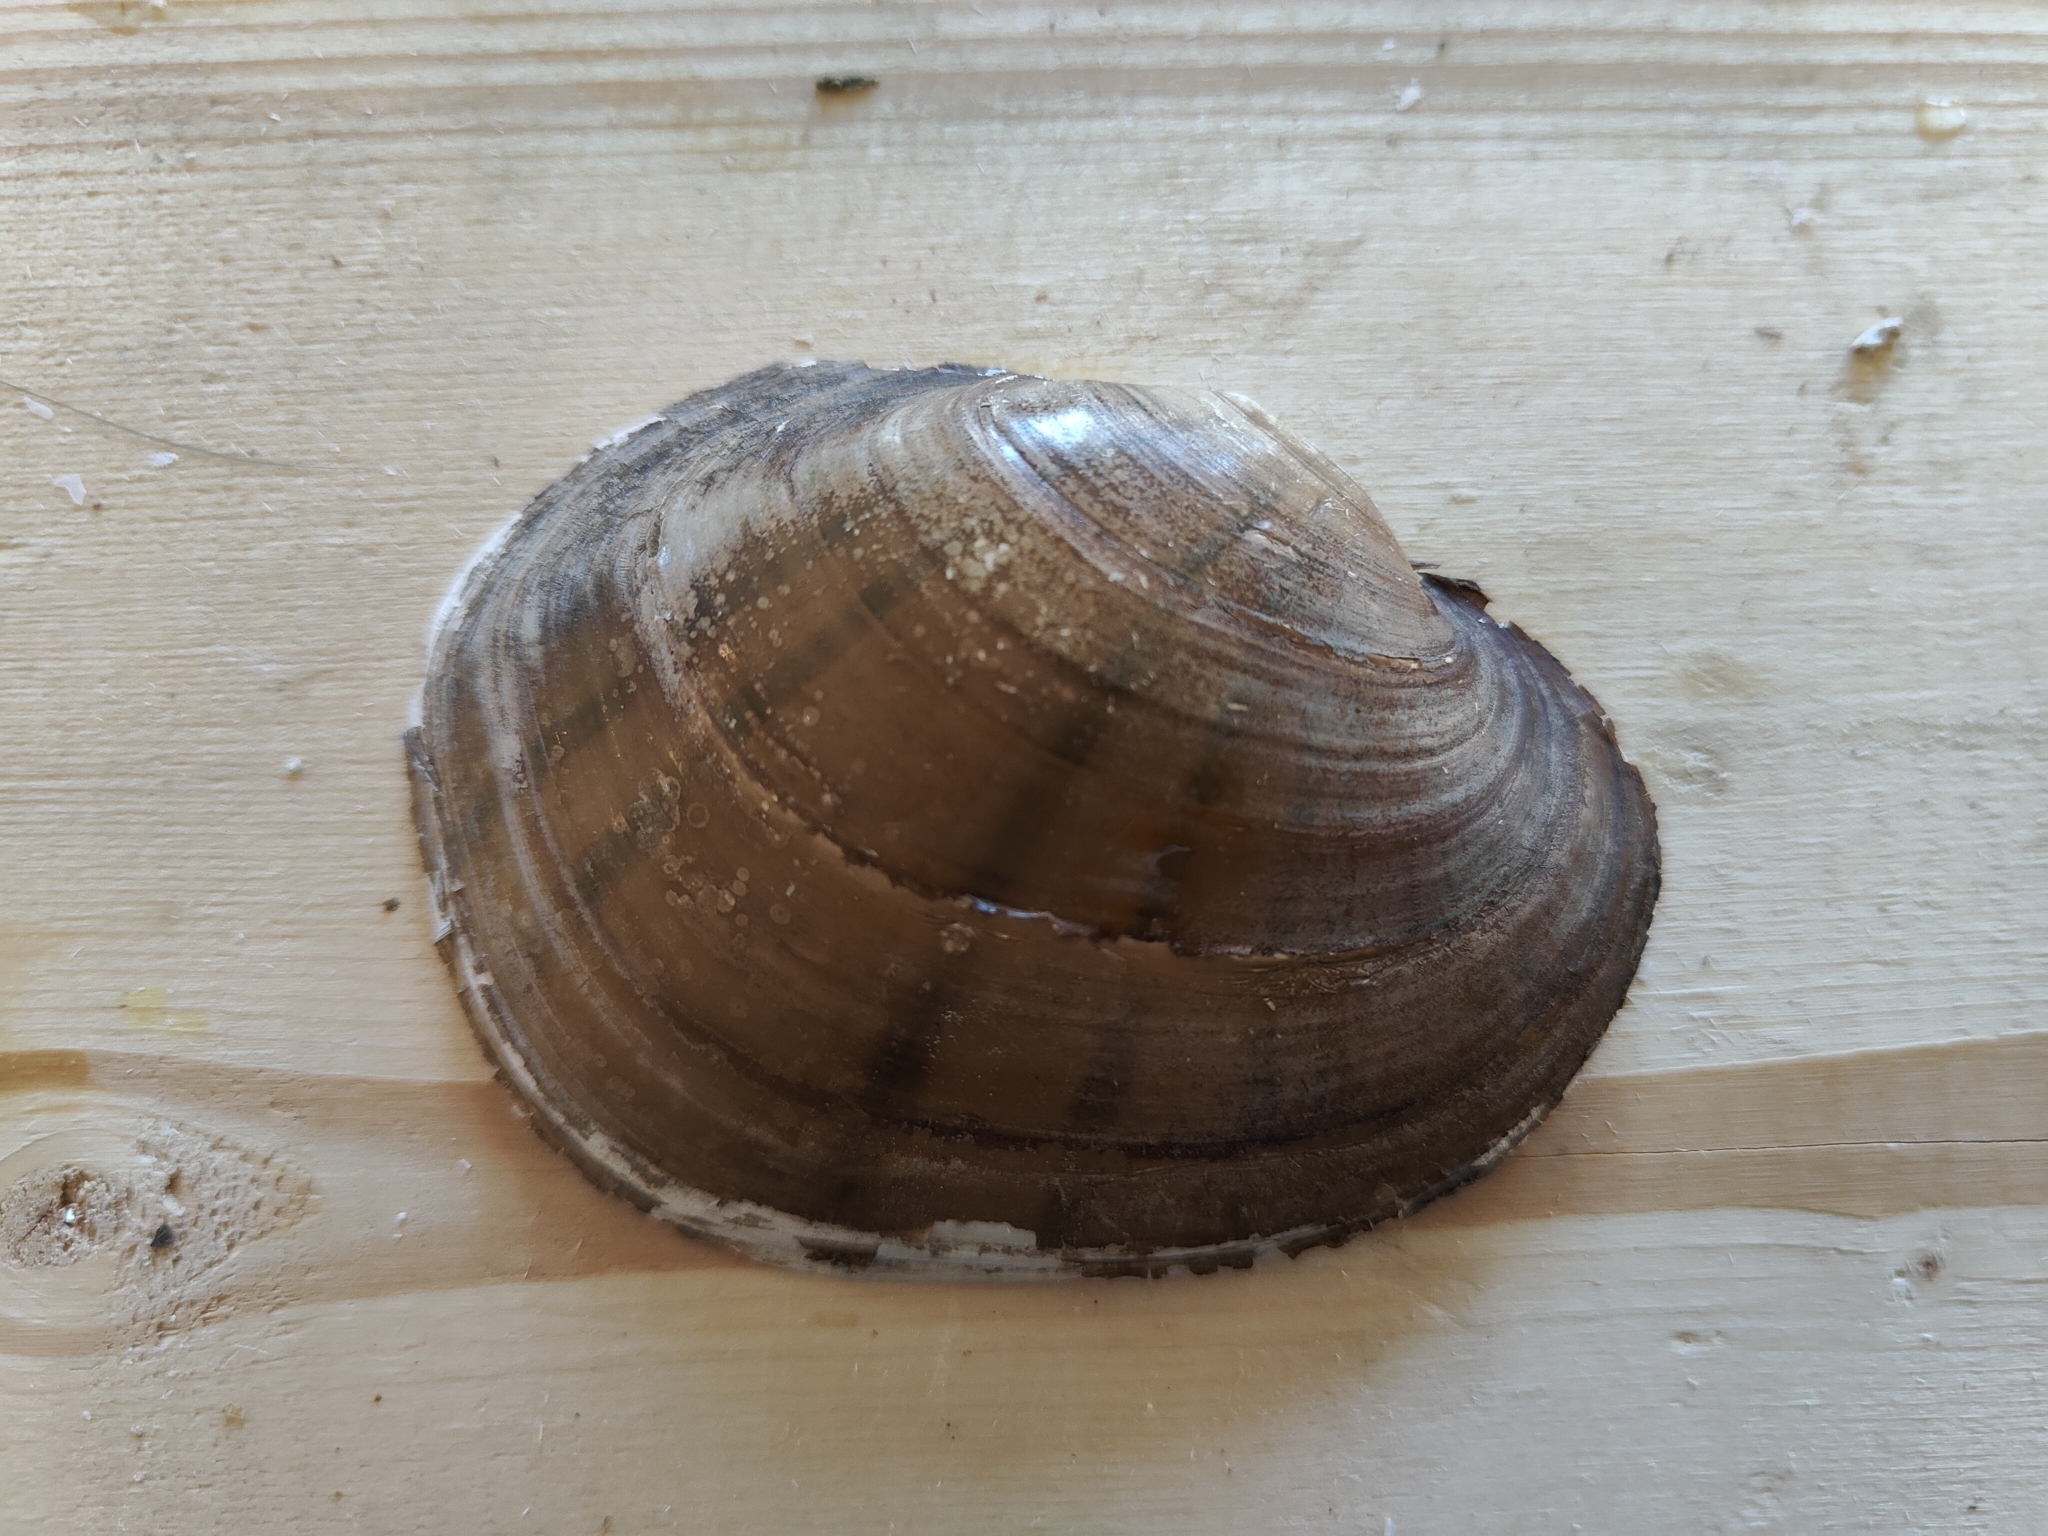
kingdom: Animalia
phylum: Mollusca
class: Bivalvia
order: Unionida
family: Unionidae
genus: Lampsilis
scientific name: Lampsilis cardium
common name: Plain pocketbook
